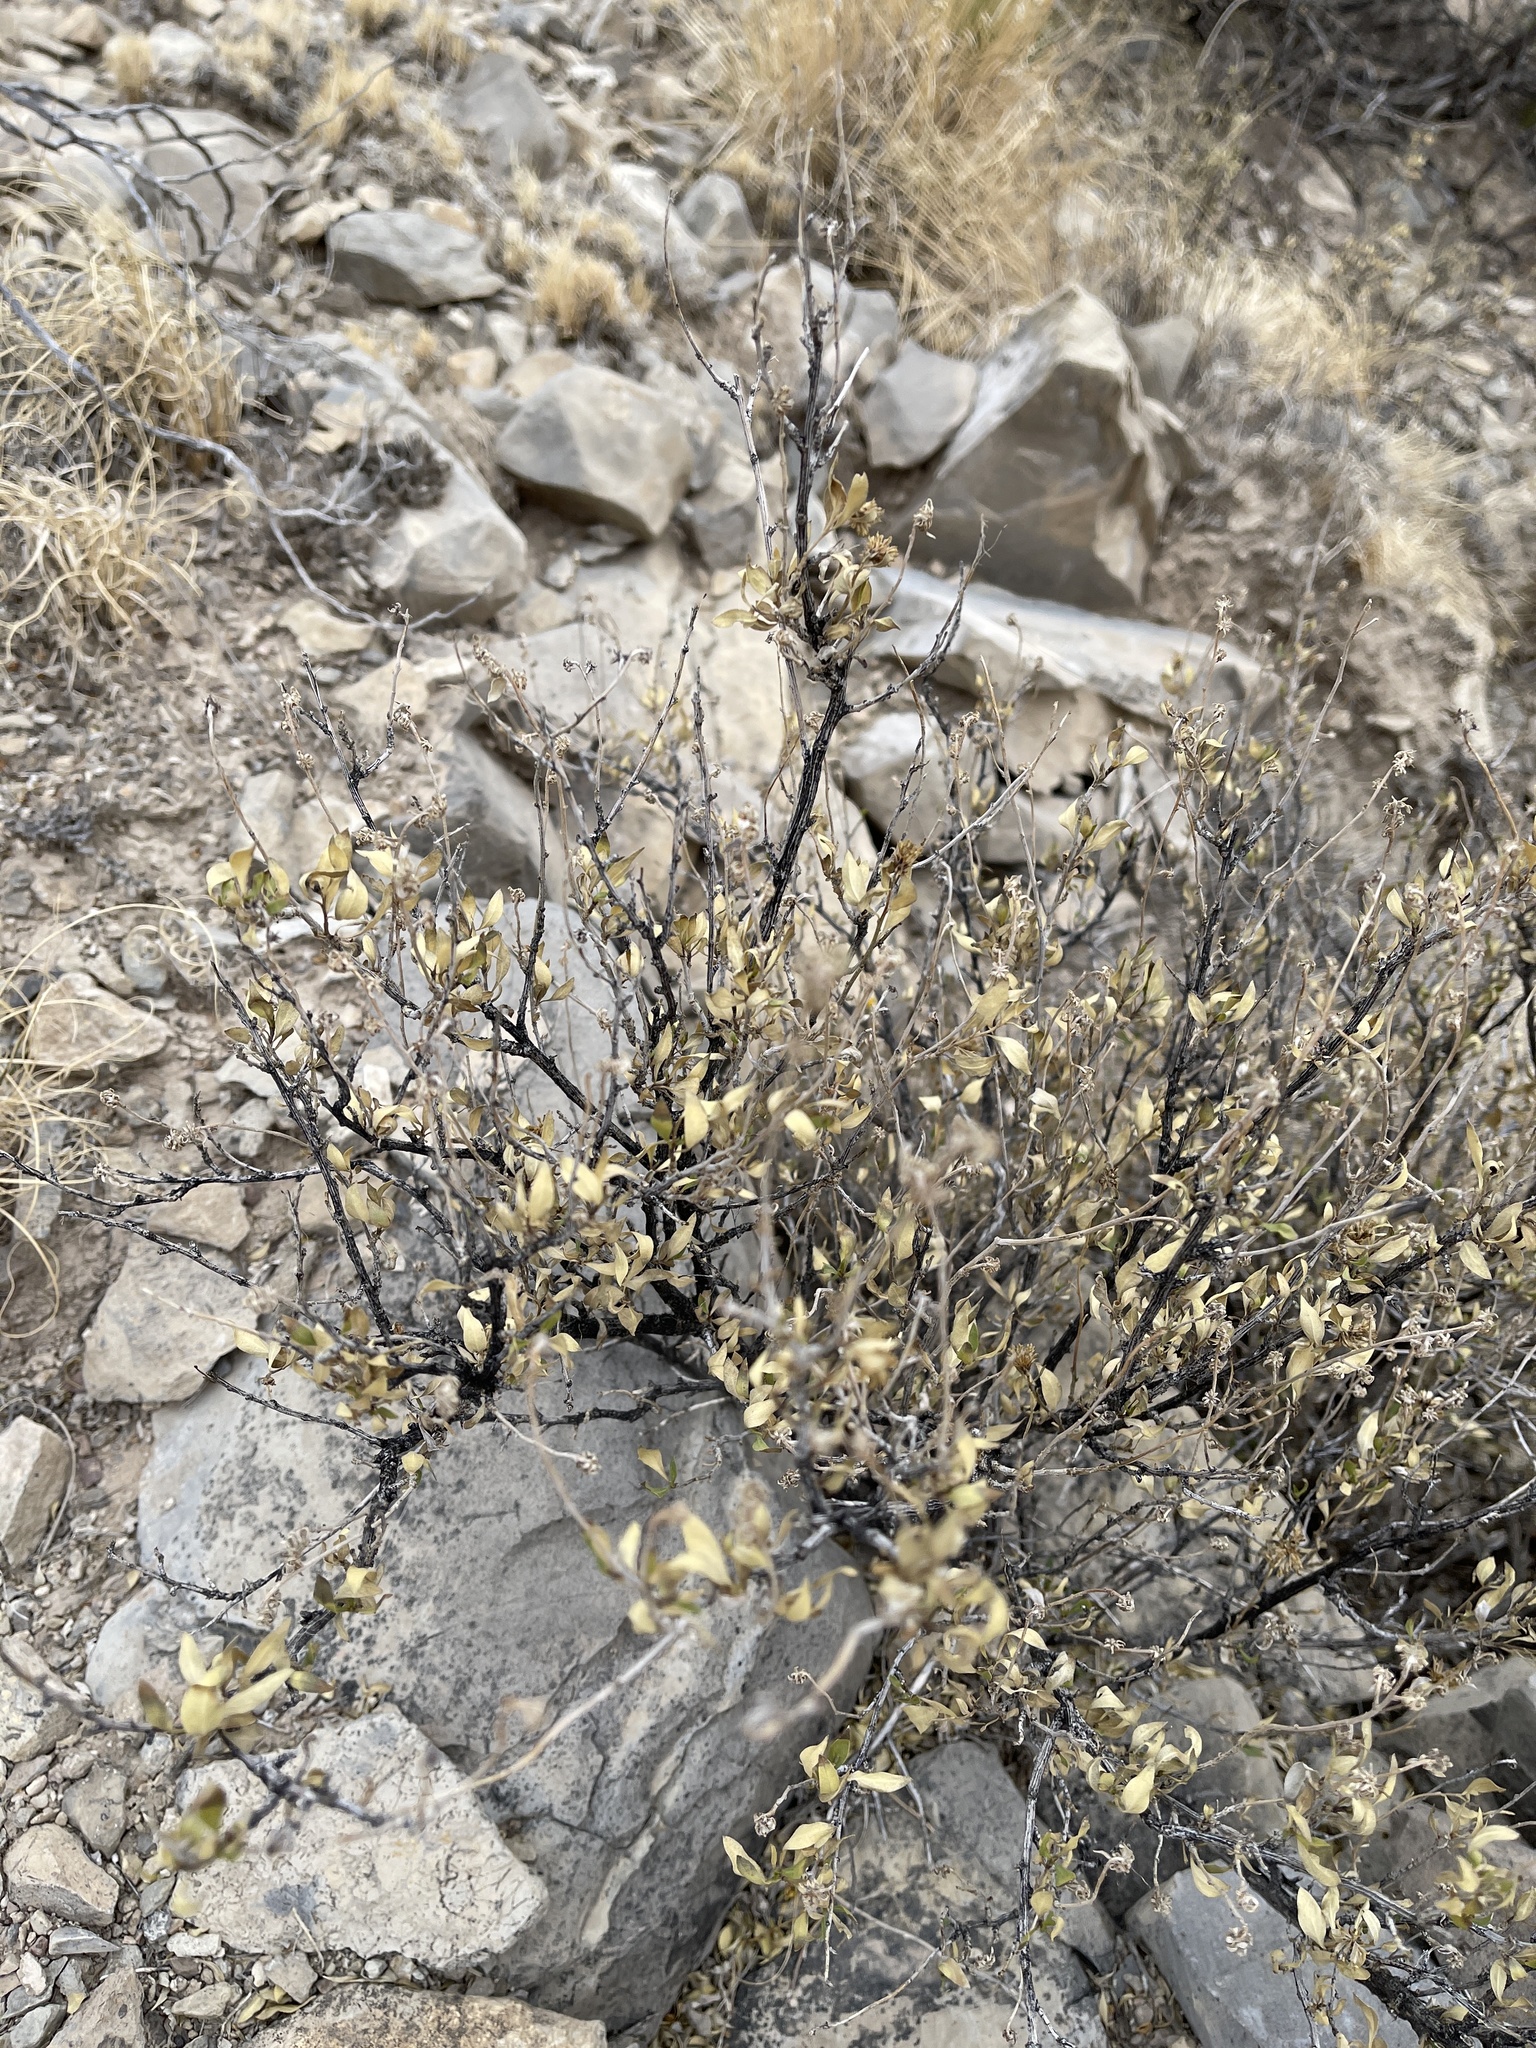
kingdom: Plantae
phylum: Tracheophyta
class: Magnoliopsida
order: Asterales
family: Asteraceae
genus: Flourensia
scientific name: Flourensia cernua
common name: Varnishbush
